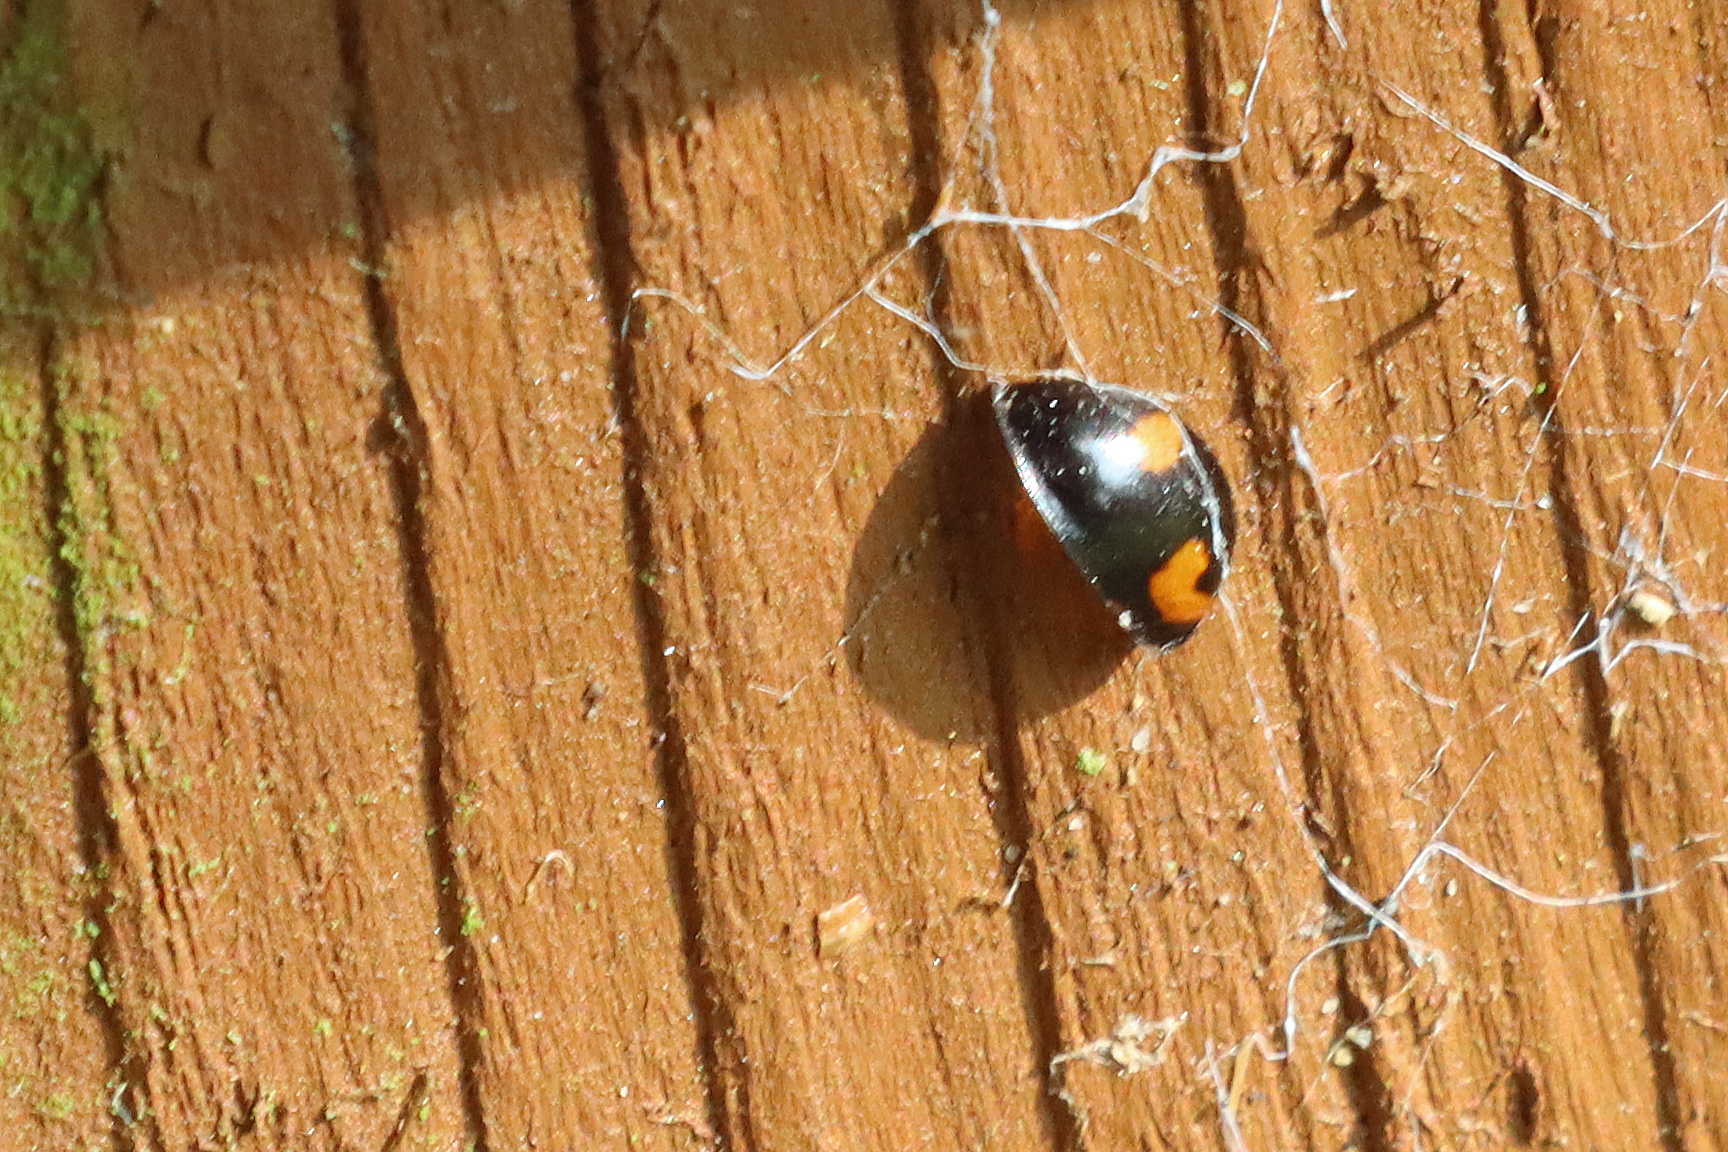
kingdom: Animalia
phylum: Arthropoda
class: Insecta
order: Coleoptera
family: Coccinellidae
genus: Brumus
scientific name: Brumus quadripustulatus
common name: Ladybird beetle
